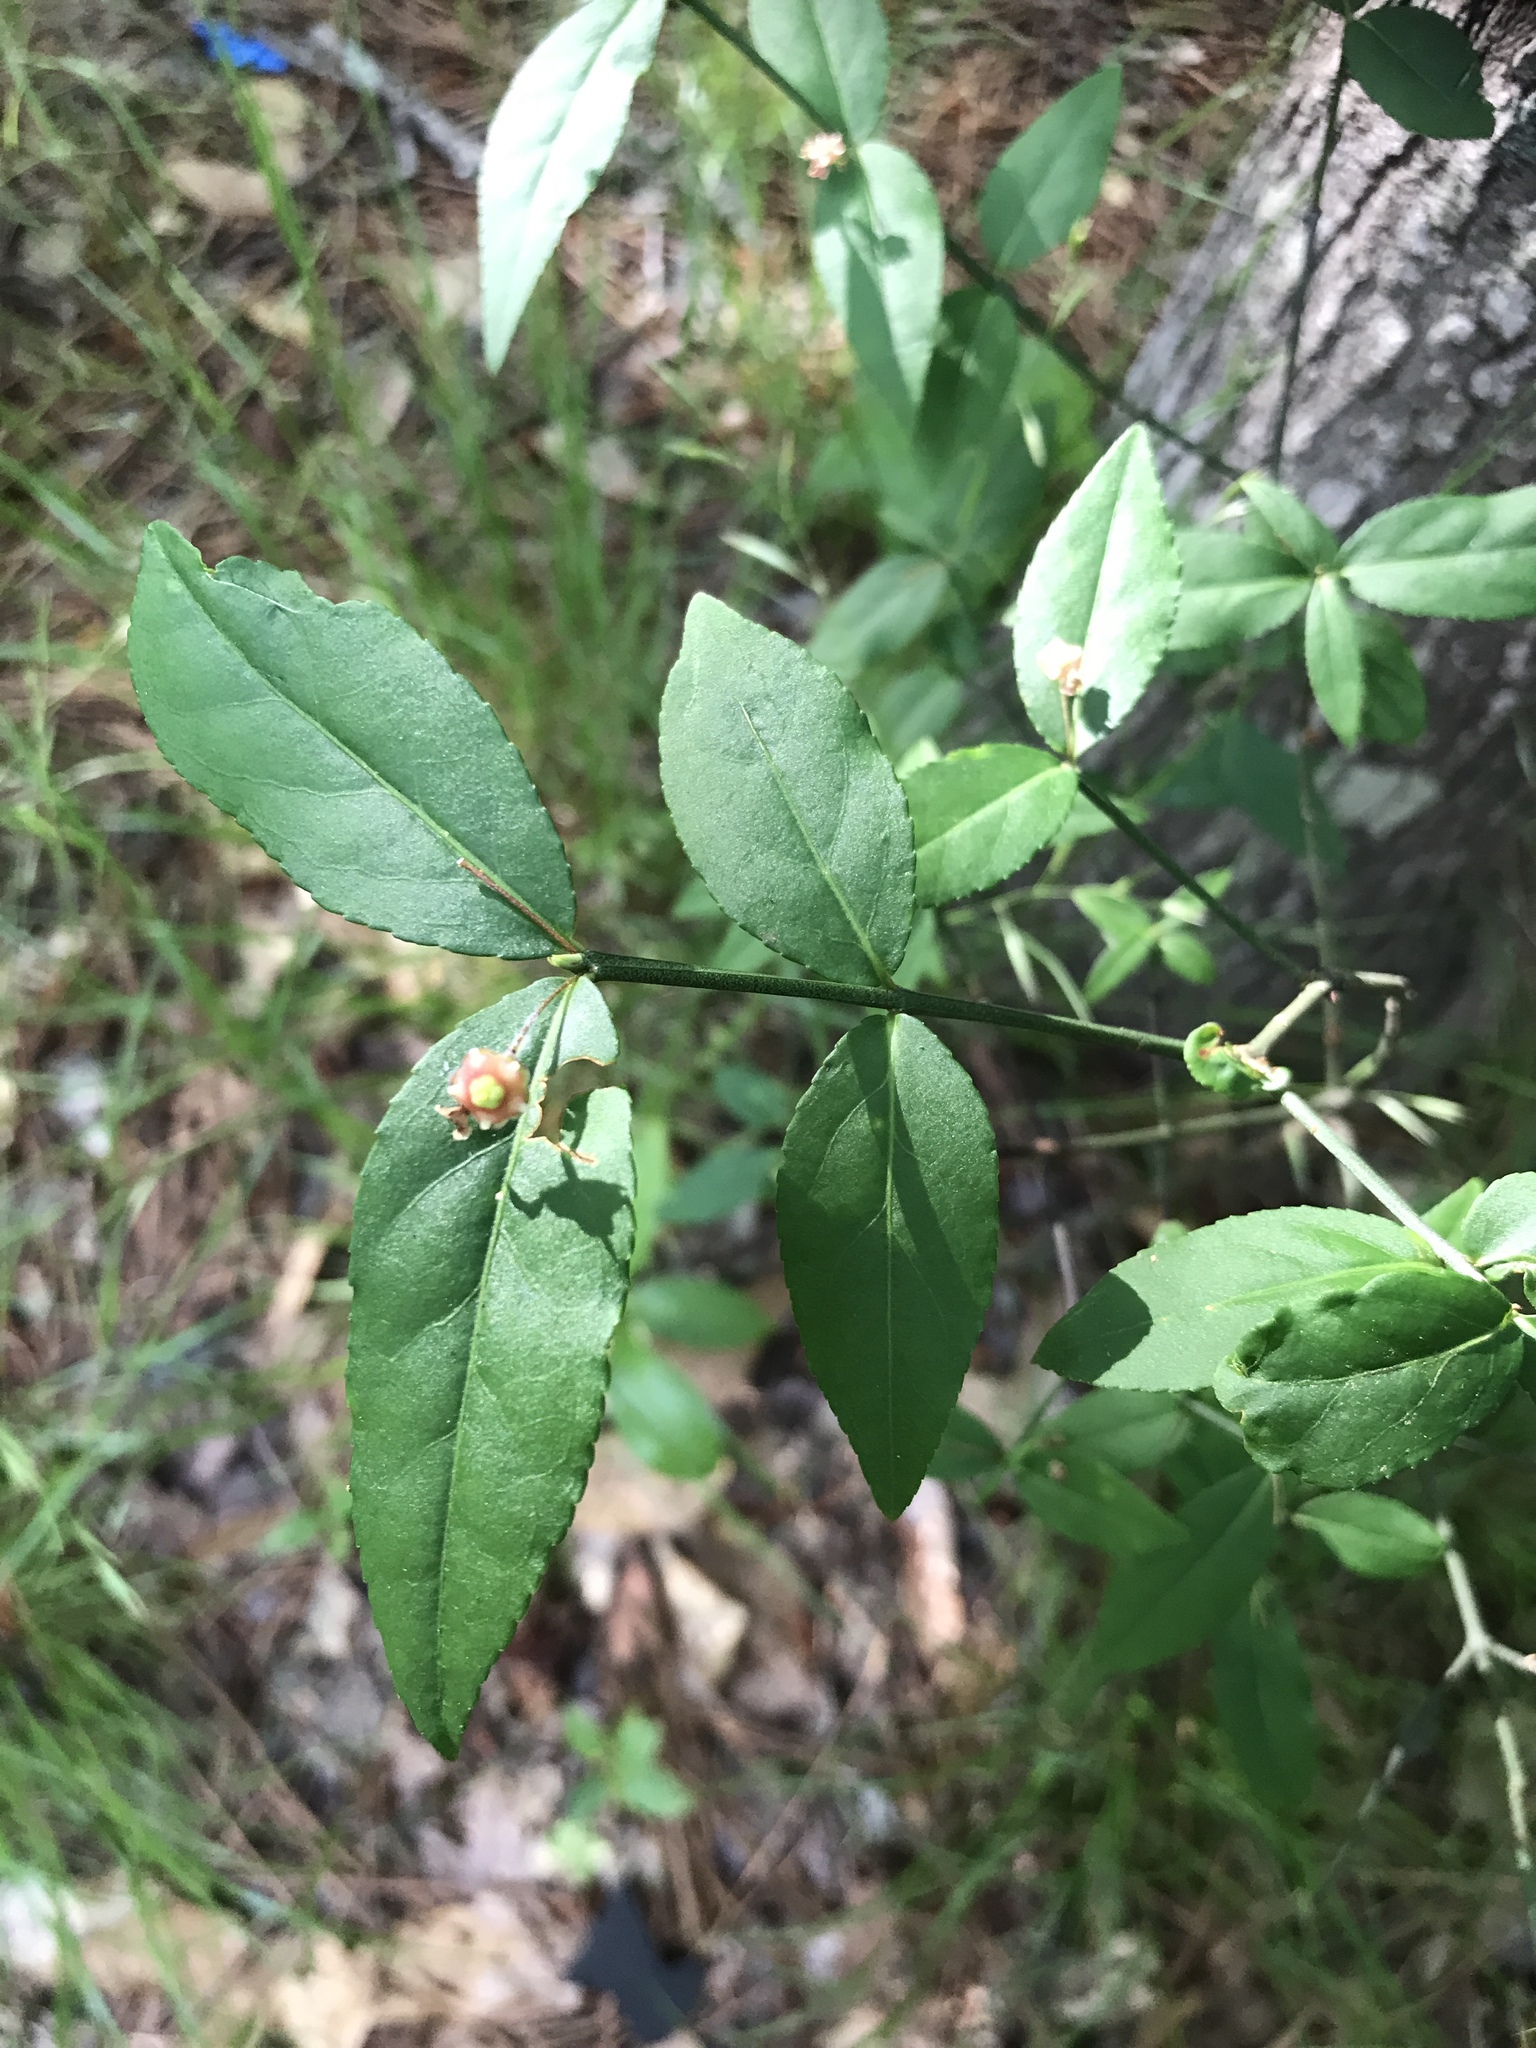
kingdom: Plantae
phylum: Tracheophyta
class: Magnoliopsida
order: Celastrales
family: Celastraceae
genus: Euonymus
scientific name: Euonymus americanus
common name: Bursting-heart
